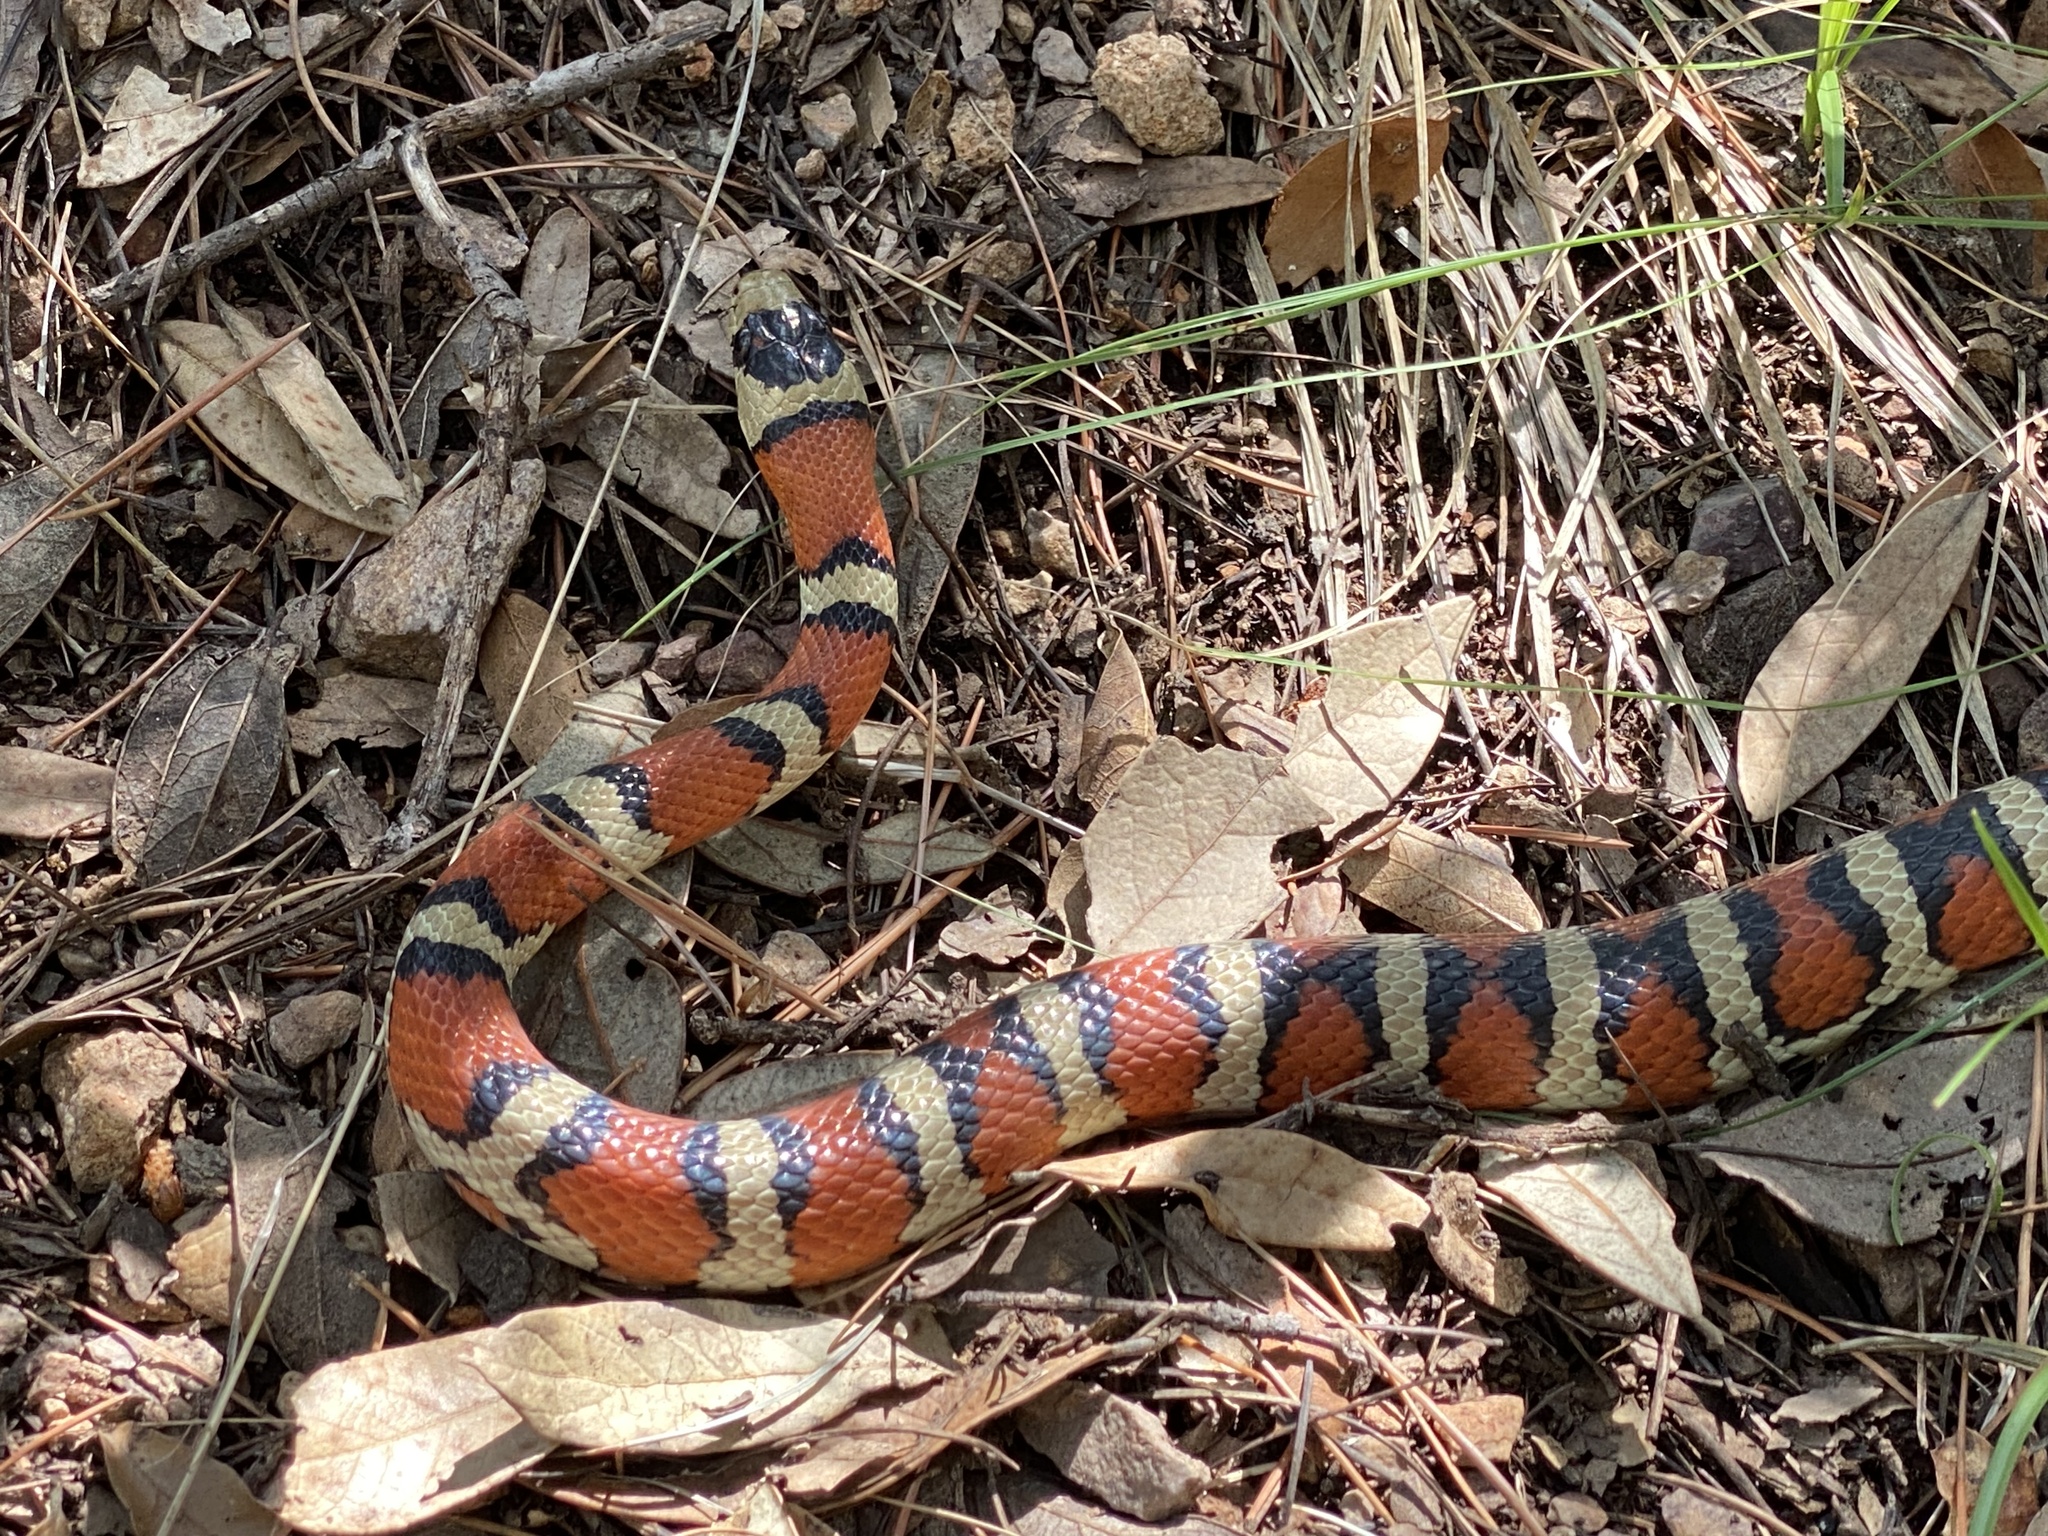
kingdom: Animalia
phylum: Chordata
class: Squamata
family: Colubridae
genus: Lampropeltis
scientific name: Lampropeltis knoblochi
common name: Chihuahuan mountain kingsnake
